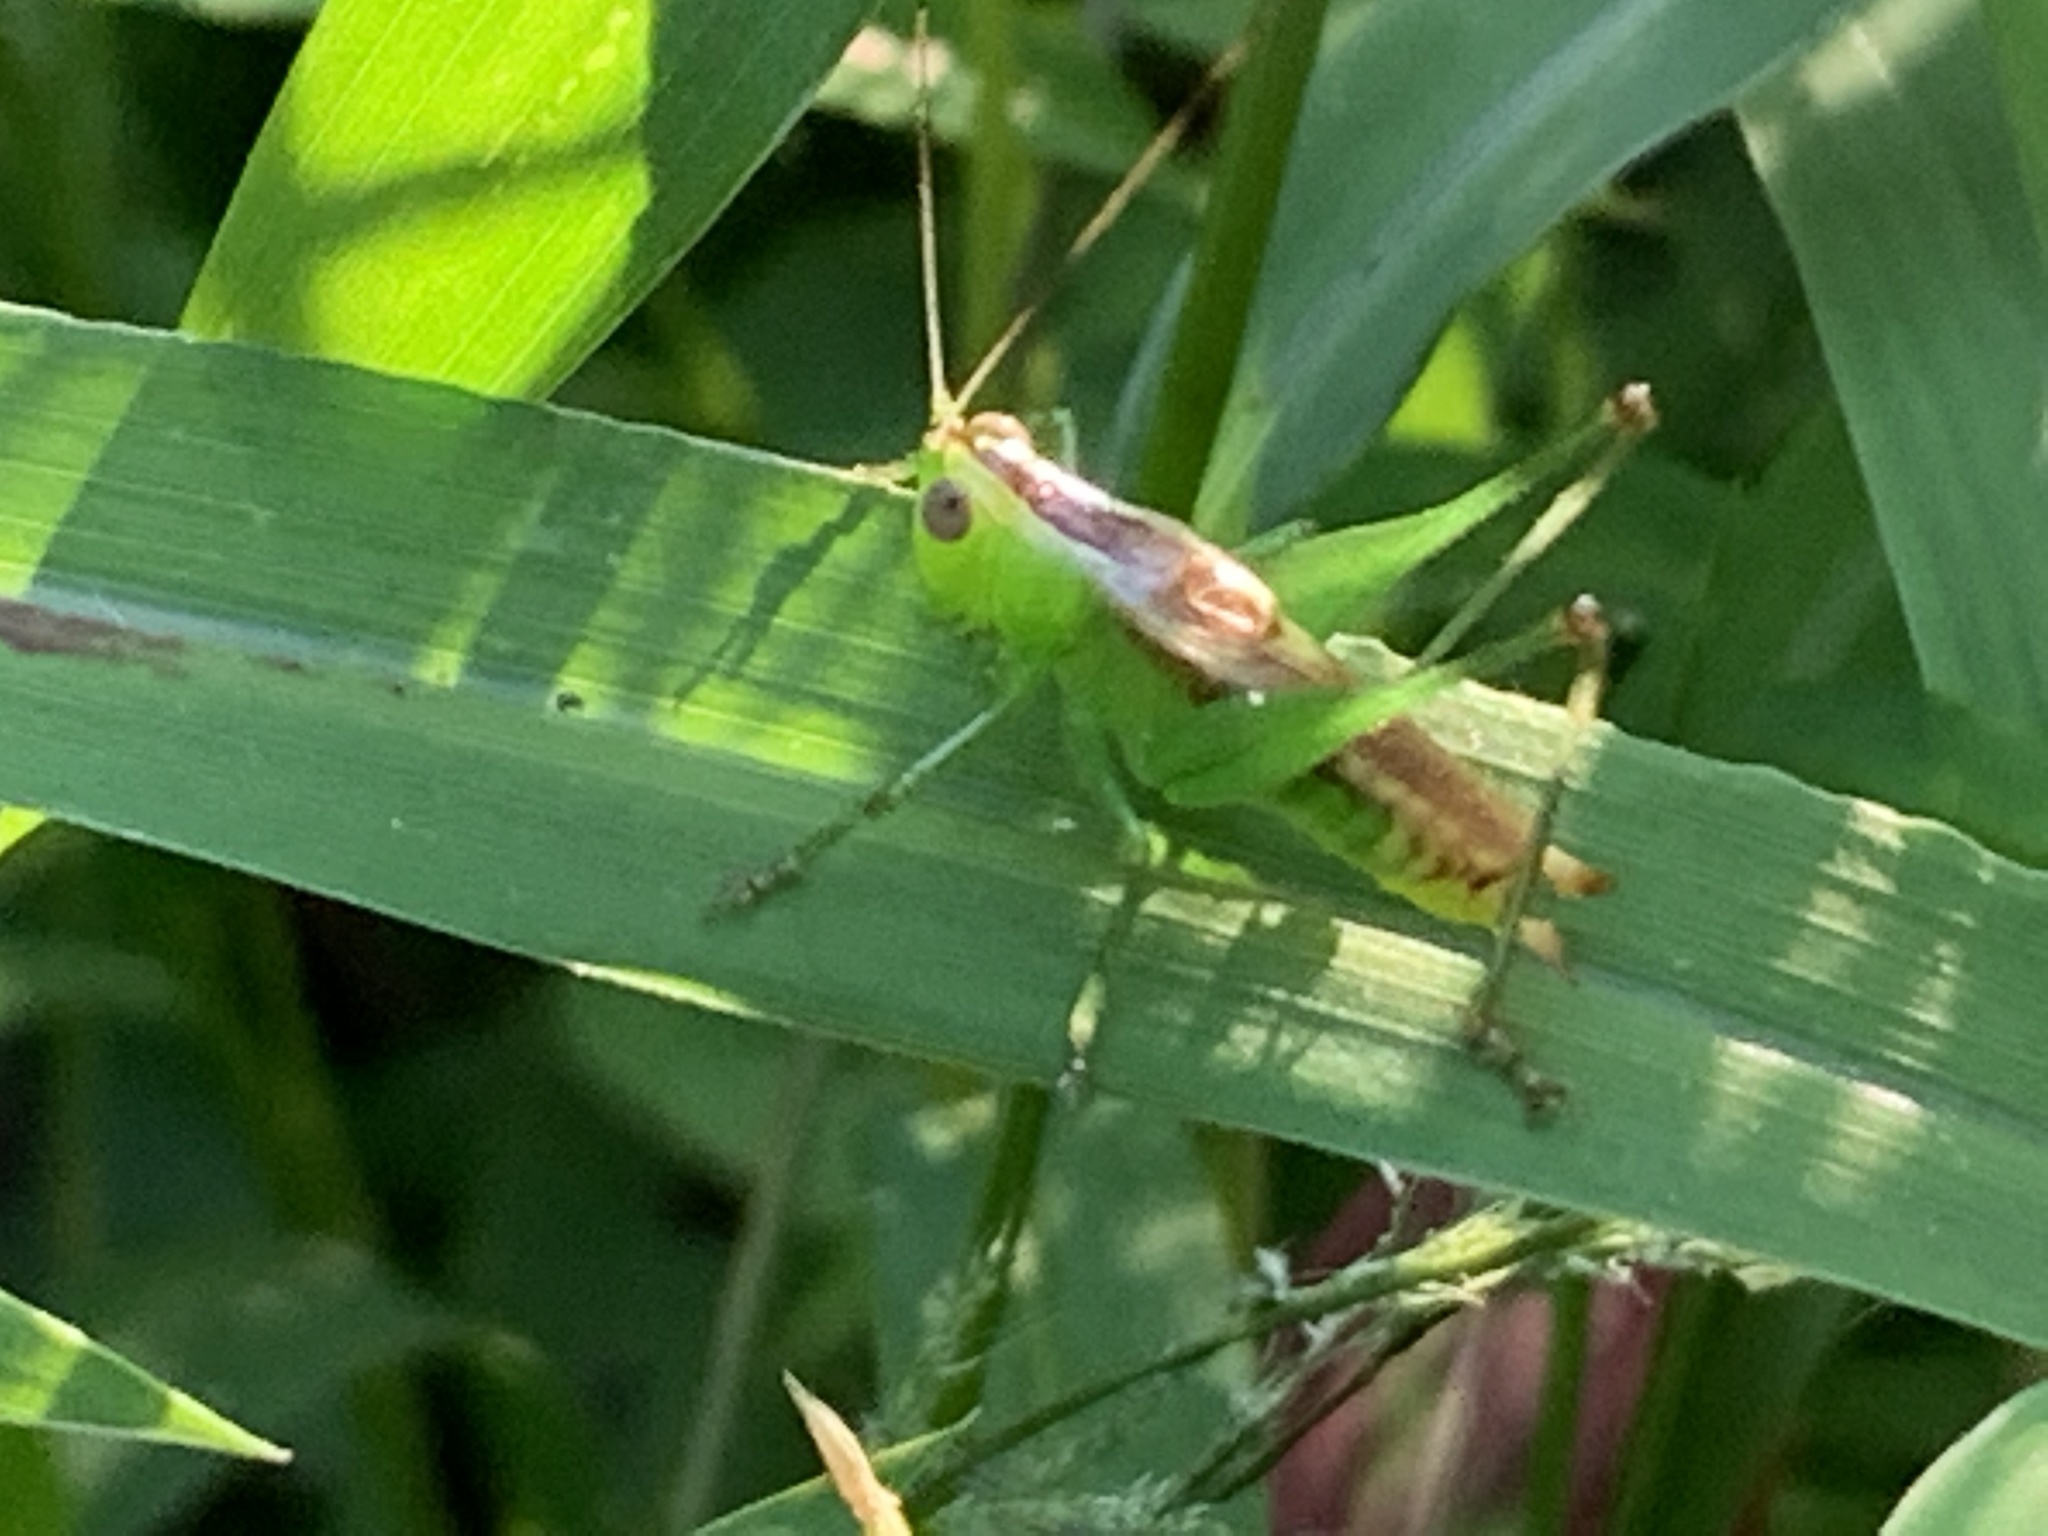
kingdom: Animalia
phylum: Arthropoda
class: Insecta
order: Orthoptera
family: Tettigoniidae
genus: Conocephalus
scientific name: Conocephalus brevipennis
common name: Short-winged meadow katydid
